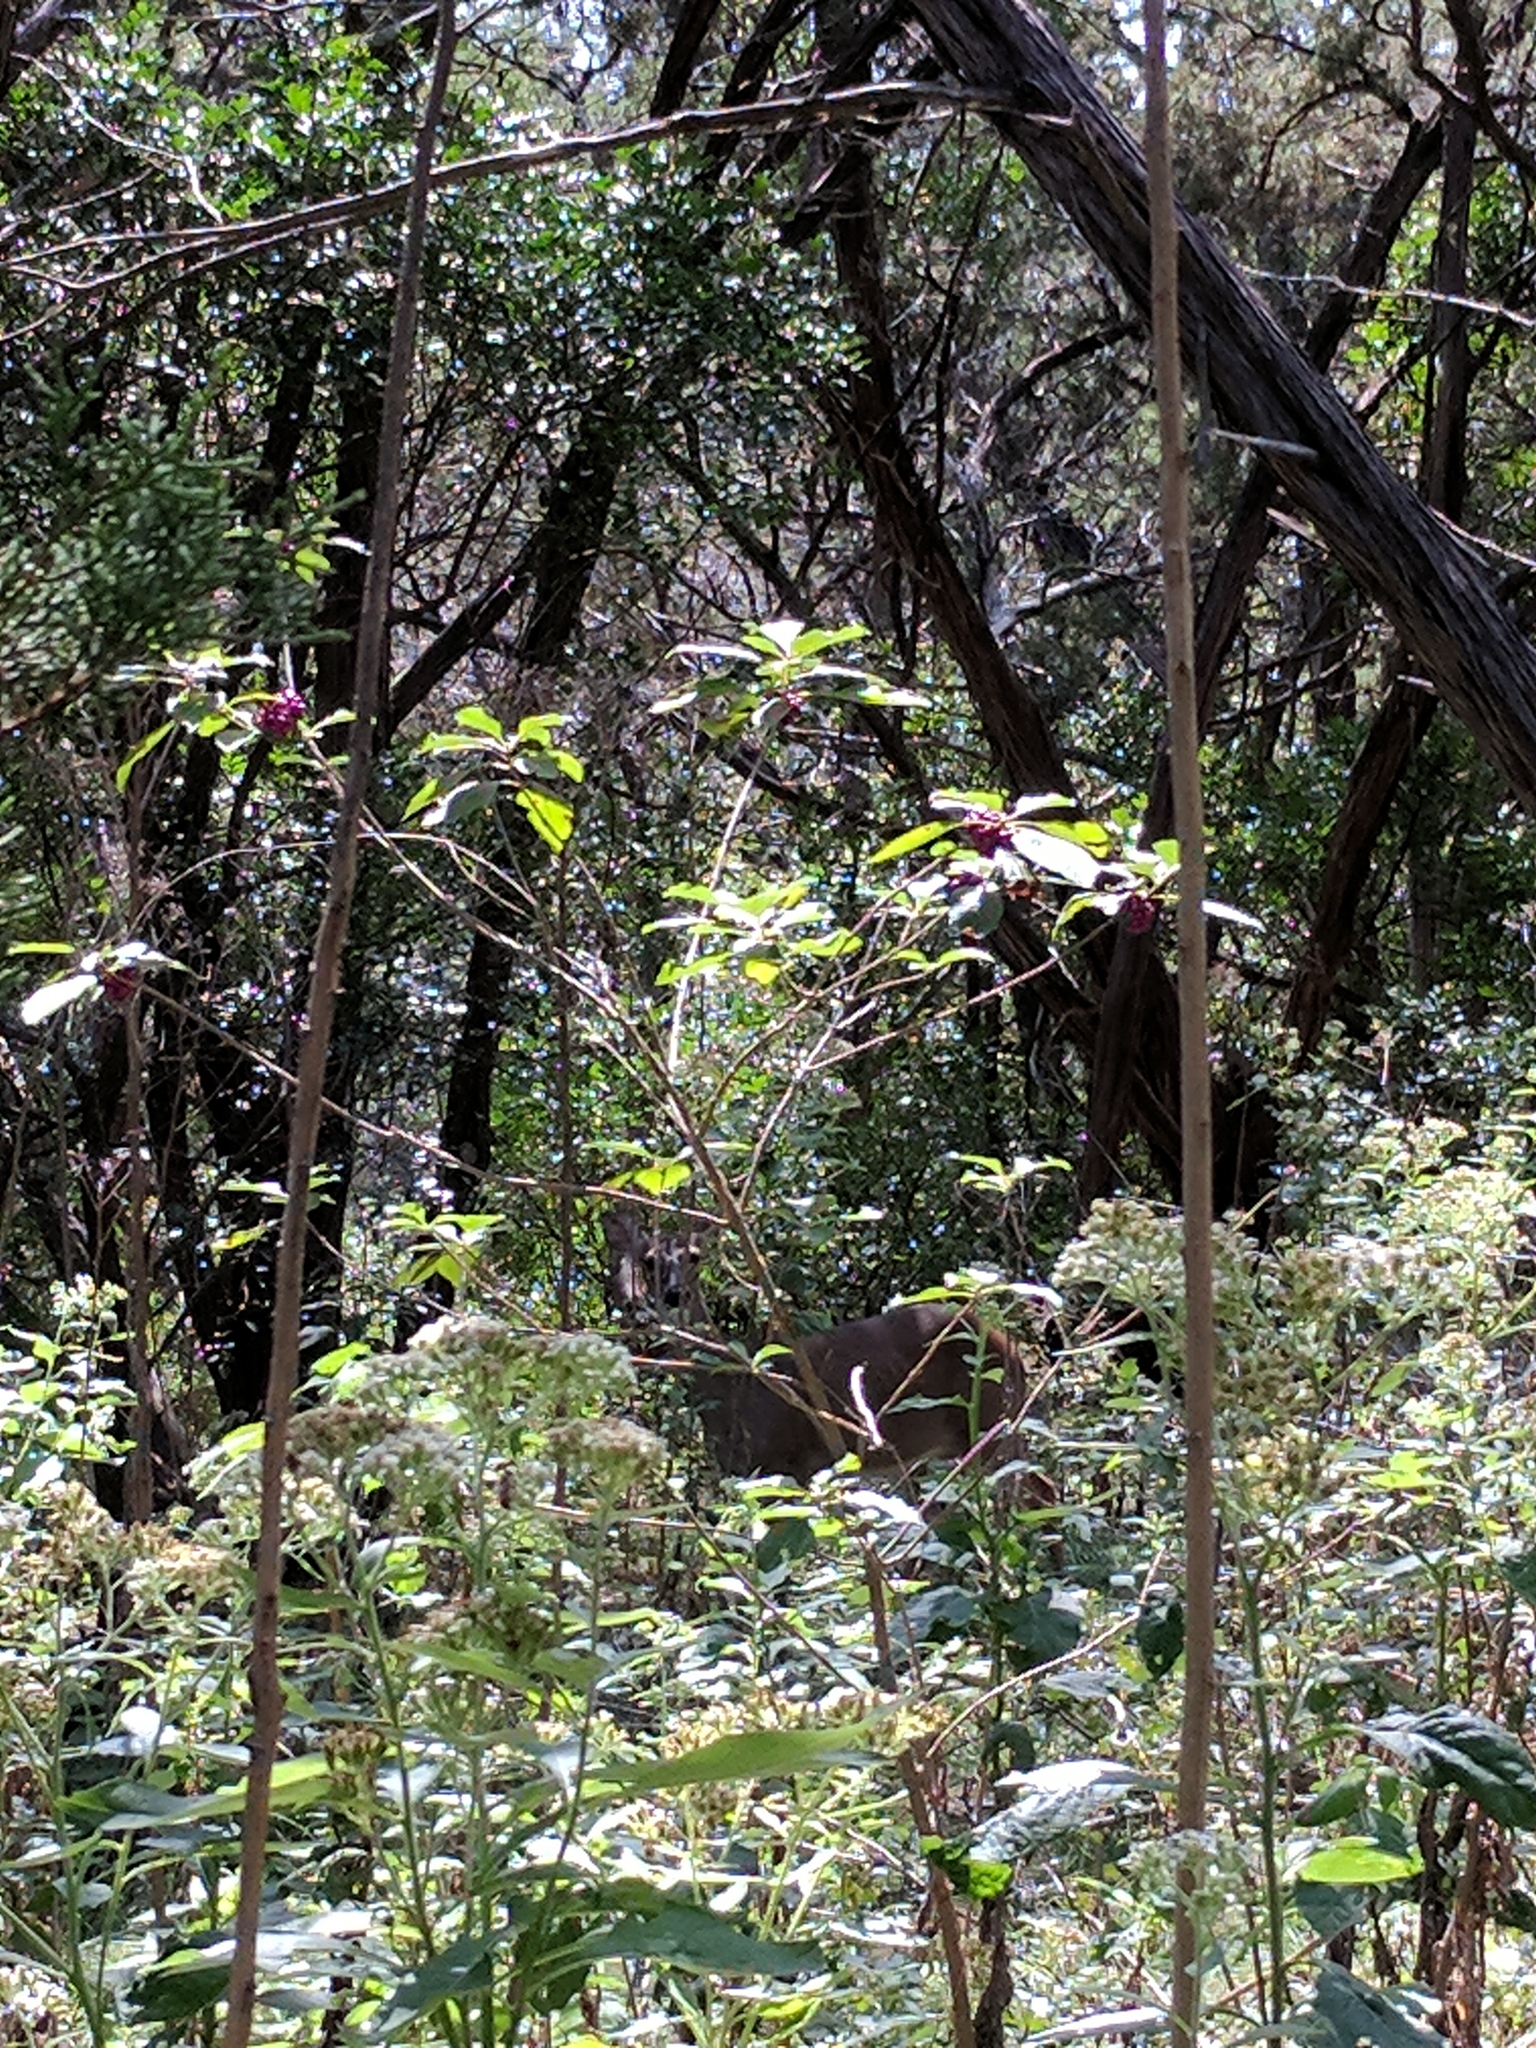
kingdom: Animalia
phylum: Chordata
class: Mammalia
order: Artiodactyla
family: Cervidae
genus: Odocoileus
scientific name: Odocoileus virginianus
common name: White-tailed deer
